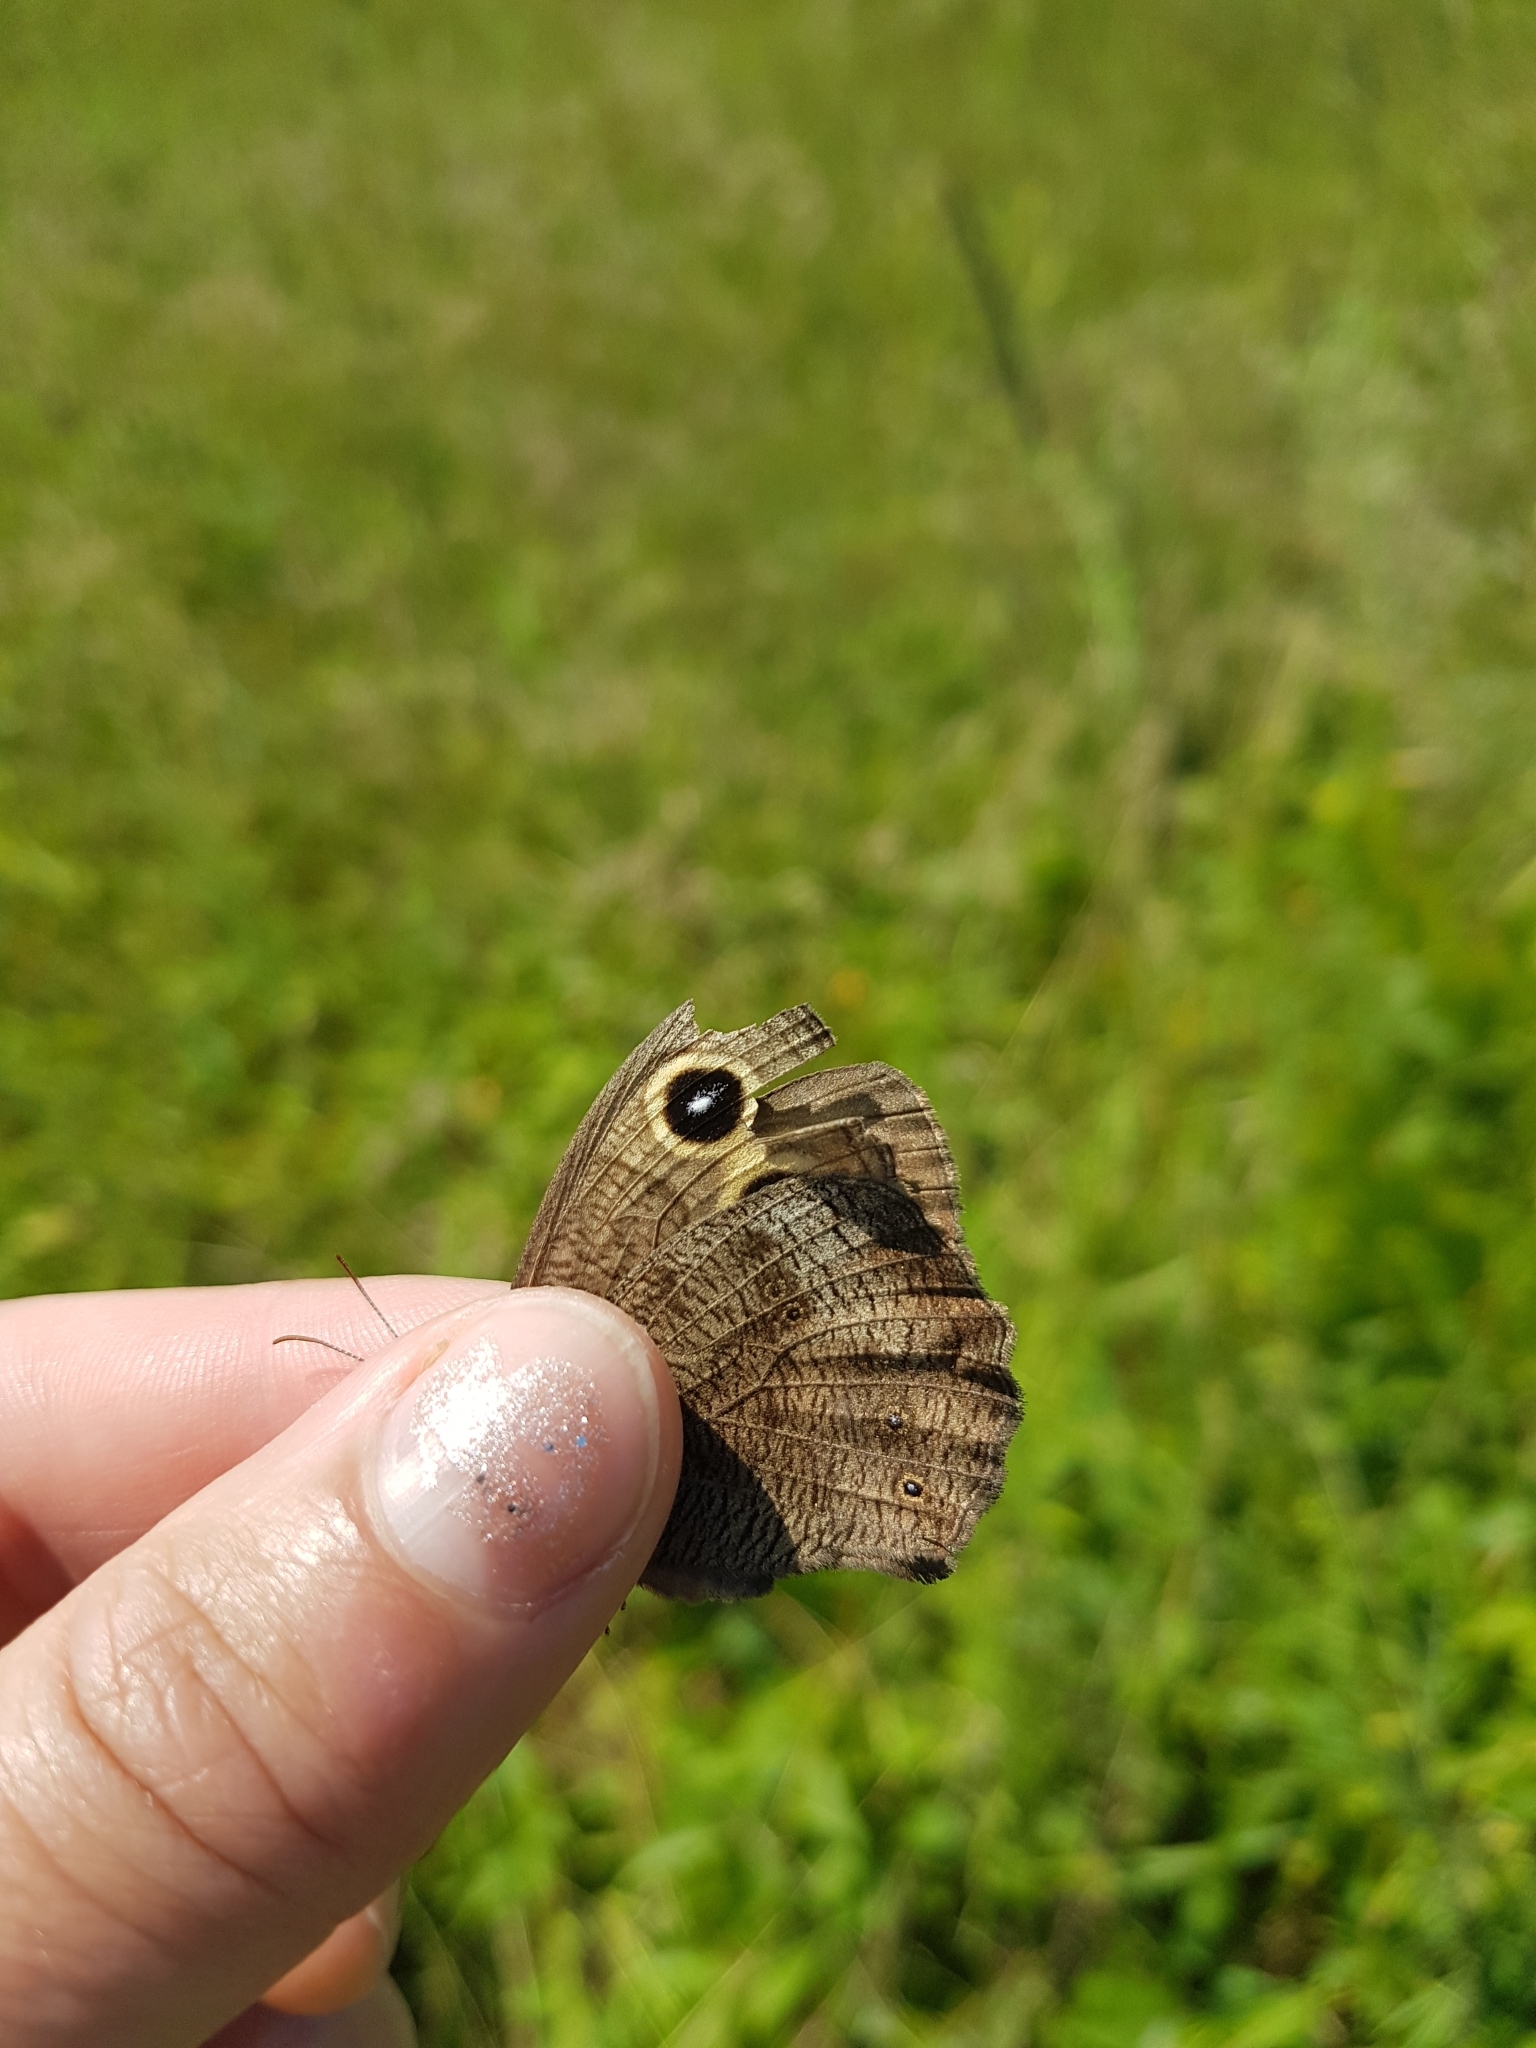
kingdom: Animalia
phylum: Arthropoda
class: Insecta
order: Lepidoptera
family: Nymphalidae
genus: Cercyonis
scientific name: Cercyonis pegala
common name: Common wood-nymph
